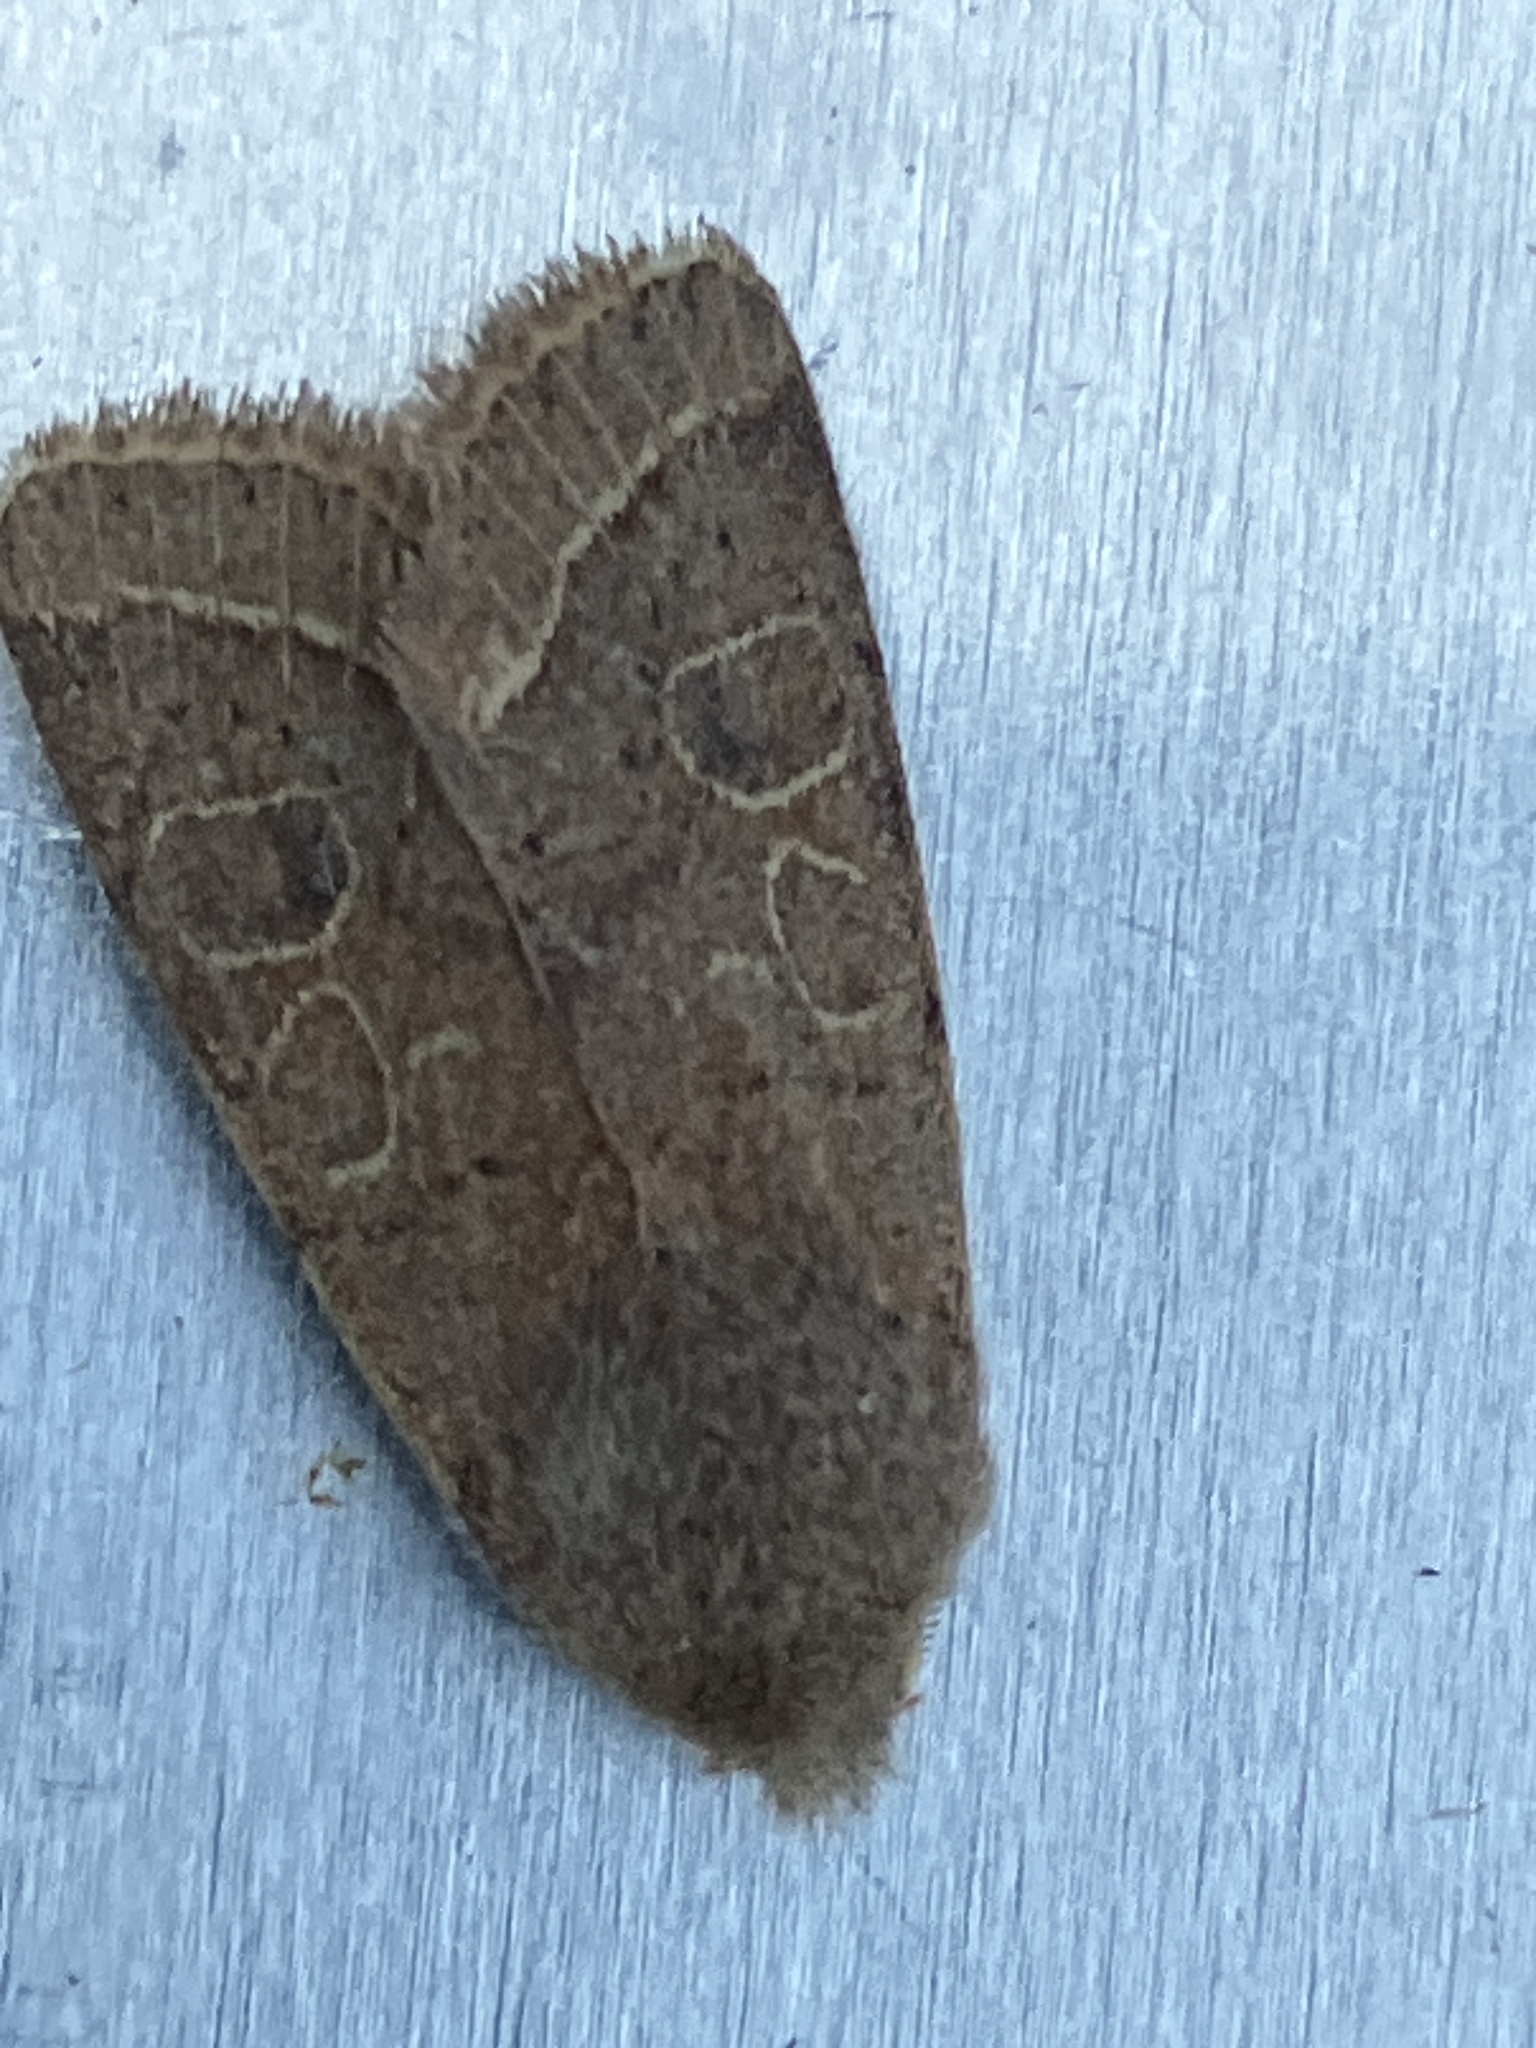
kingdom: Animalia
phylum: Arthropoda
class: Insecta
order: Lepidoptera
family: Noctuidae
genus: Orthosia
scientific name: Orthosia cerasi
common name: Common quaker
